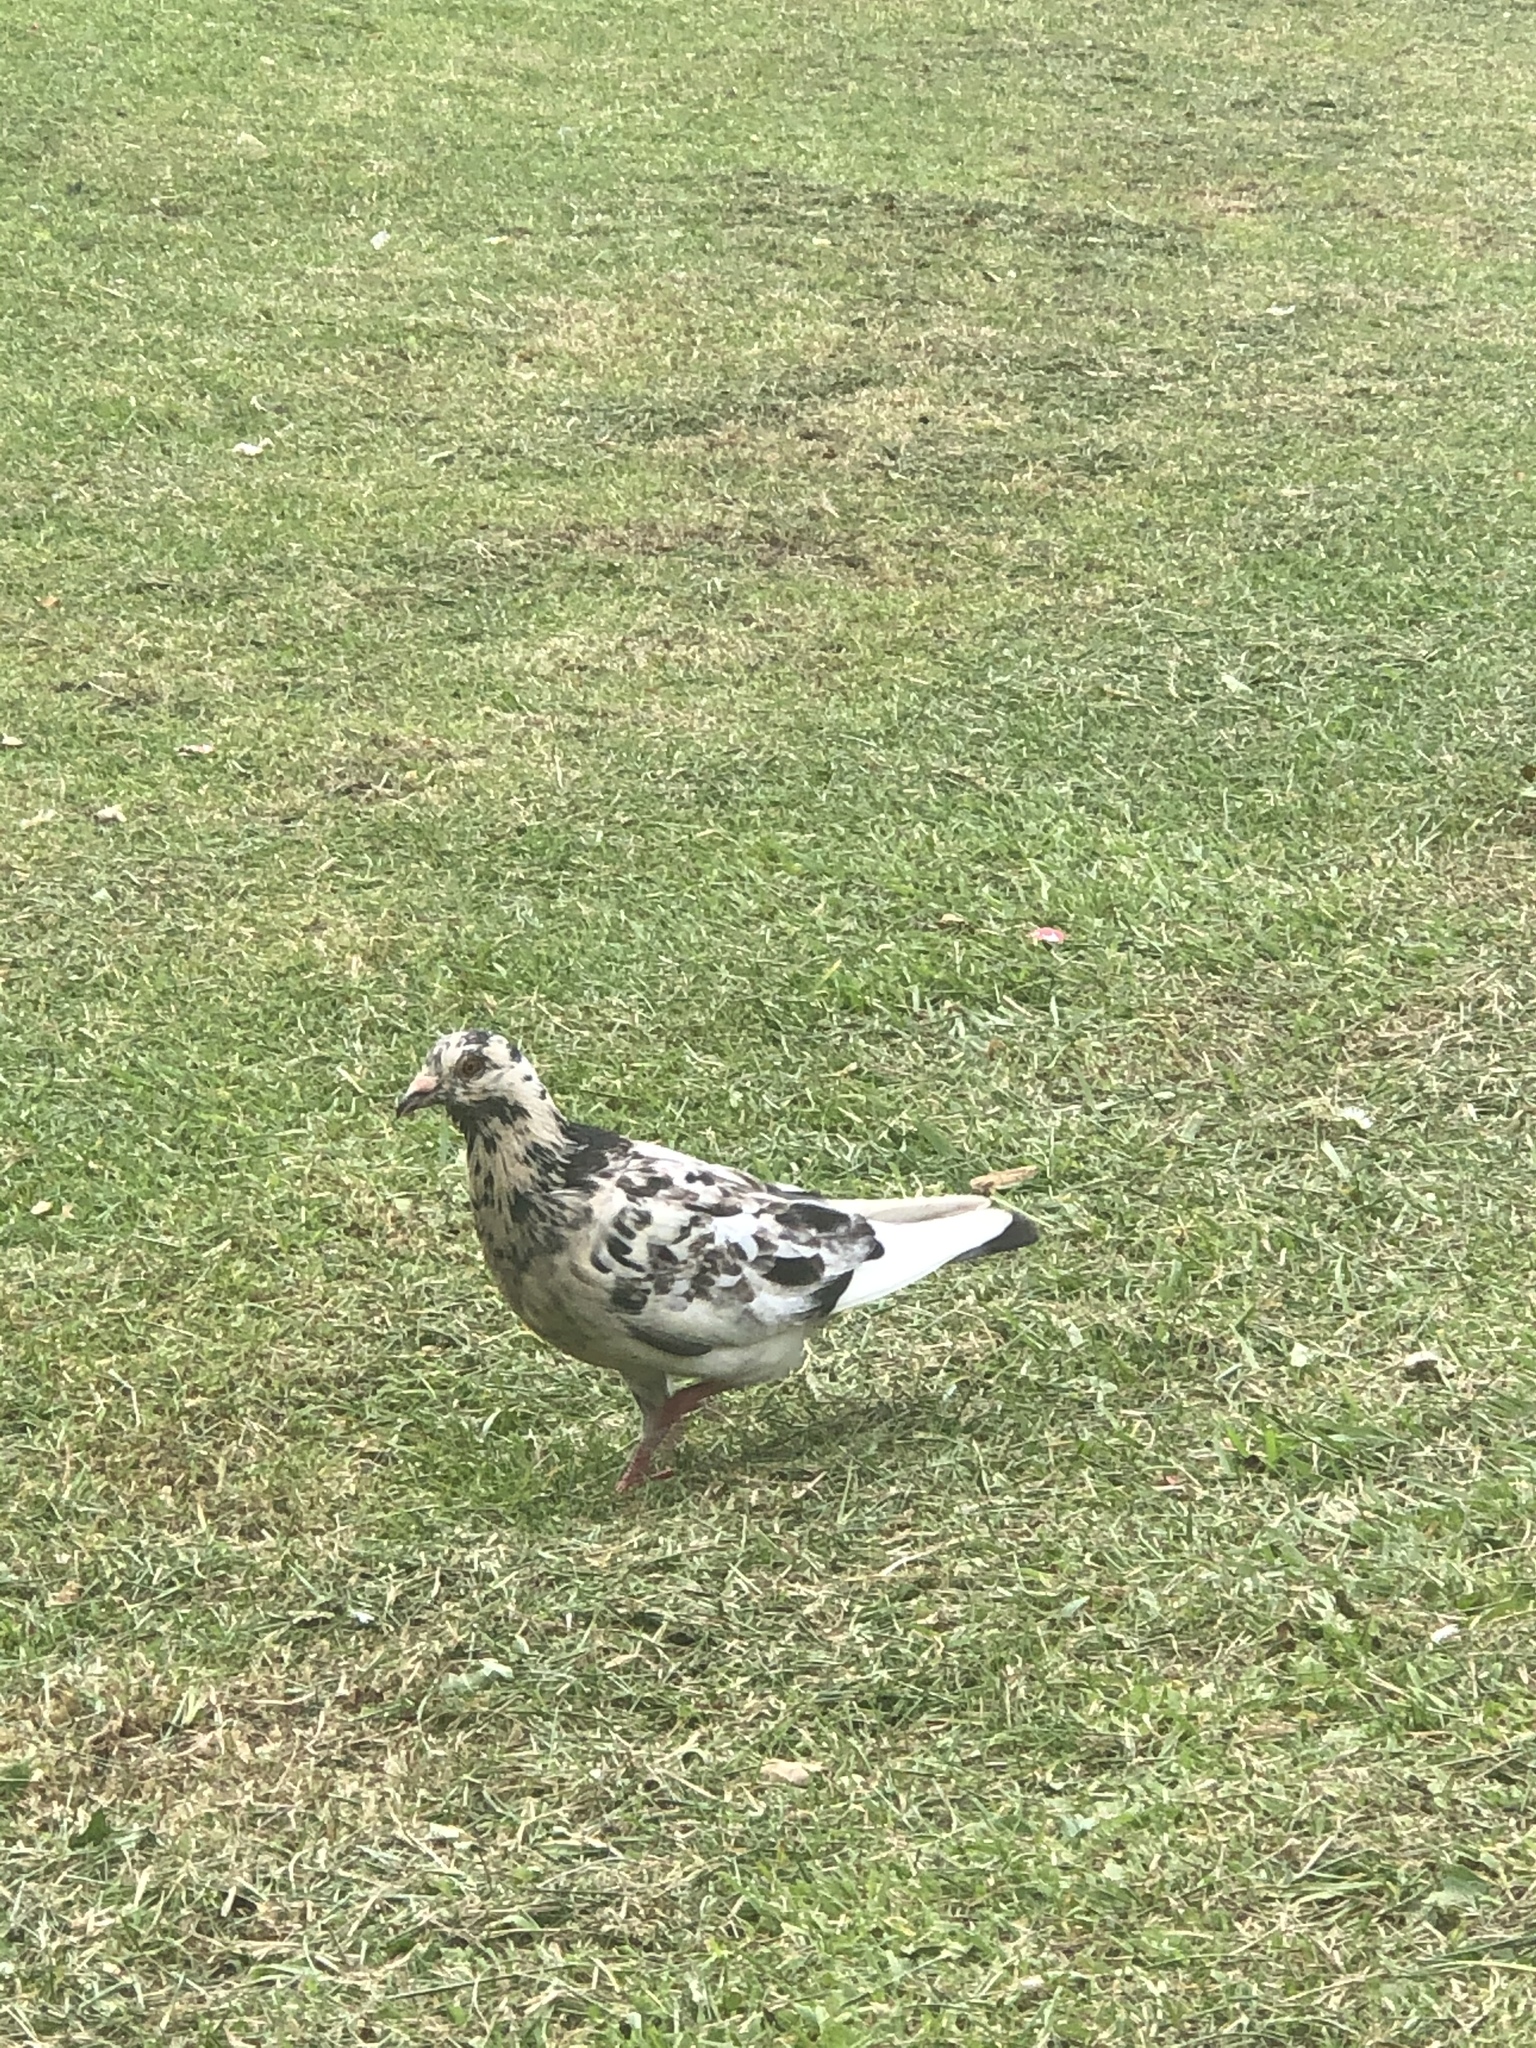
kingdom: Animalia
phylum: Chordata
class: Aves
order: Columbiformes
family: Columbidae
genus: Columba
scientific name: Columba livia
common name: Rock pigeon
